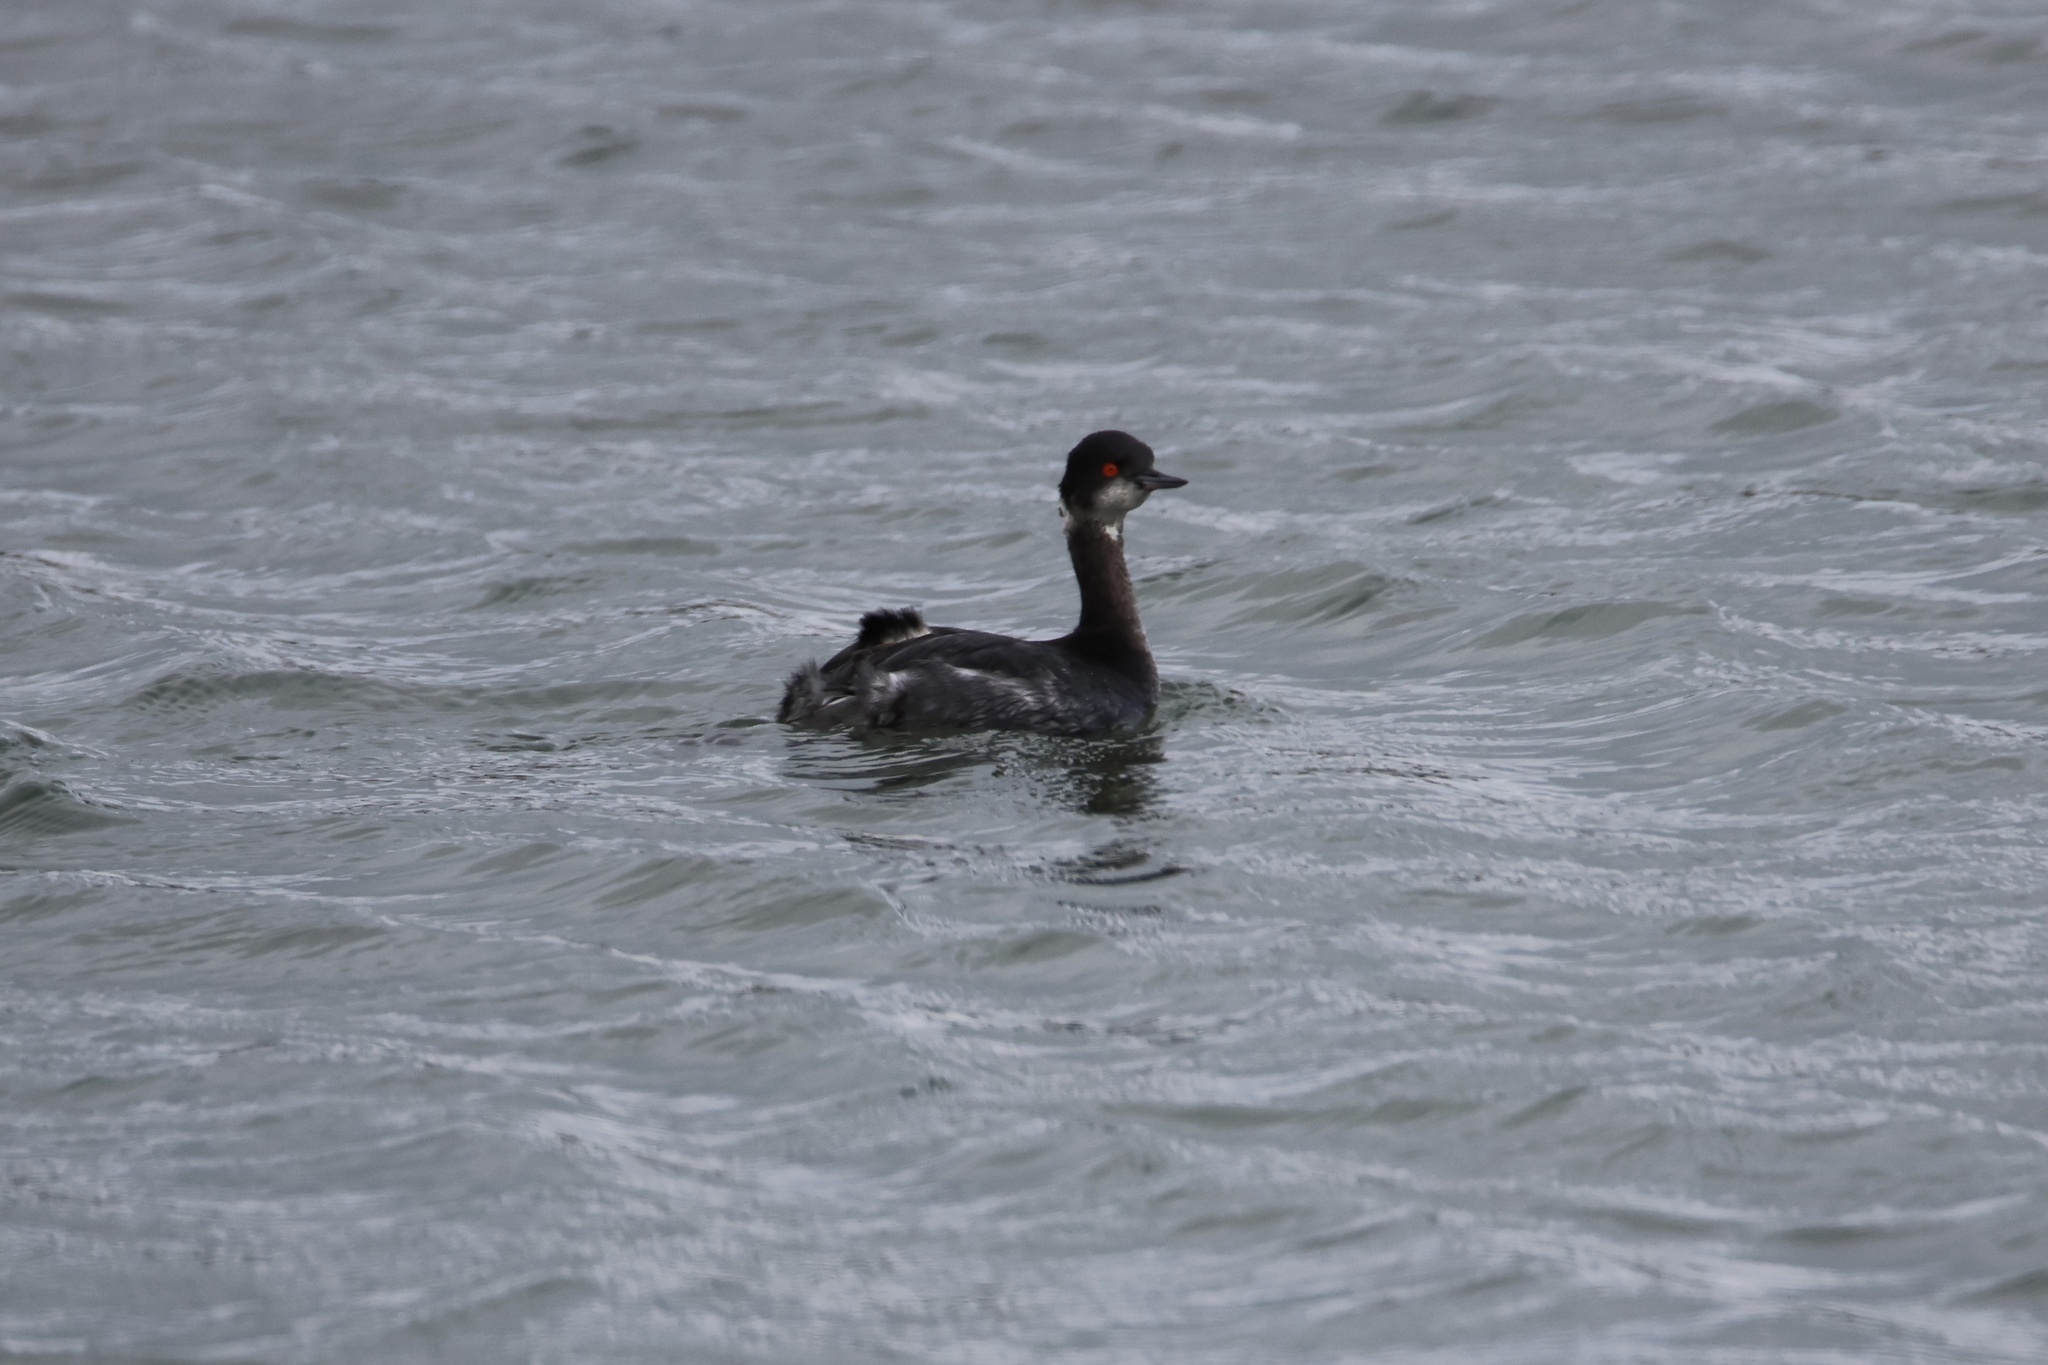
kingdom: Animalia
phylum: Chordata
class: Aves
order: Podicipediformes
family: Podicipedidae
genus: Podiceps
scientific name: Podiceps nigricollis
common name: Black-necked grebe
